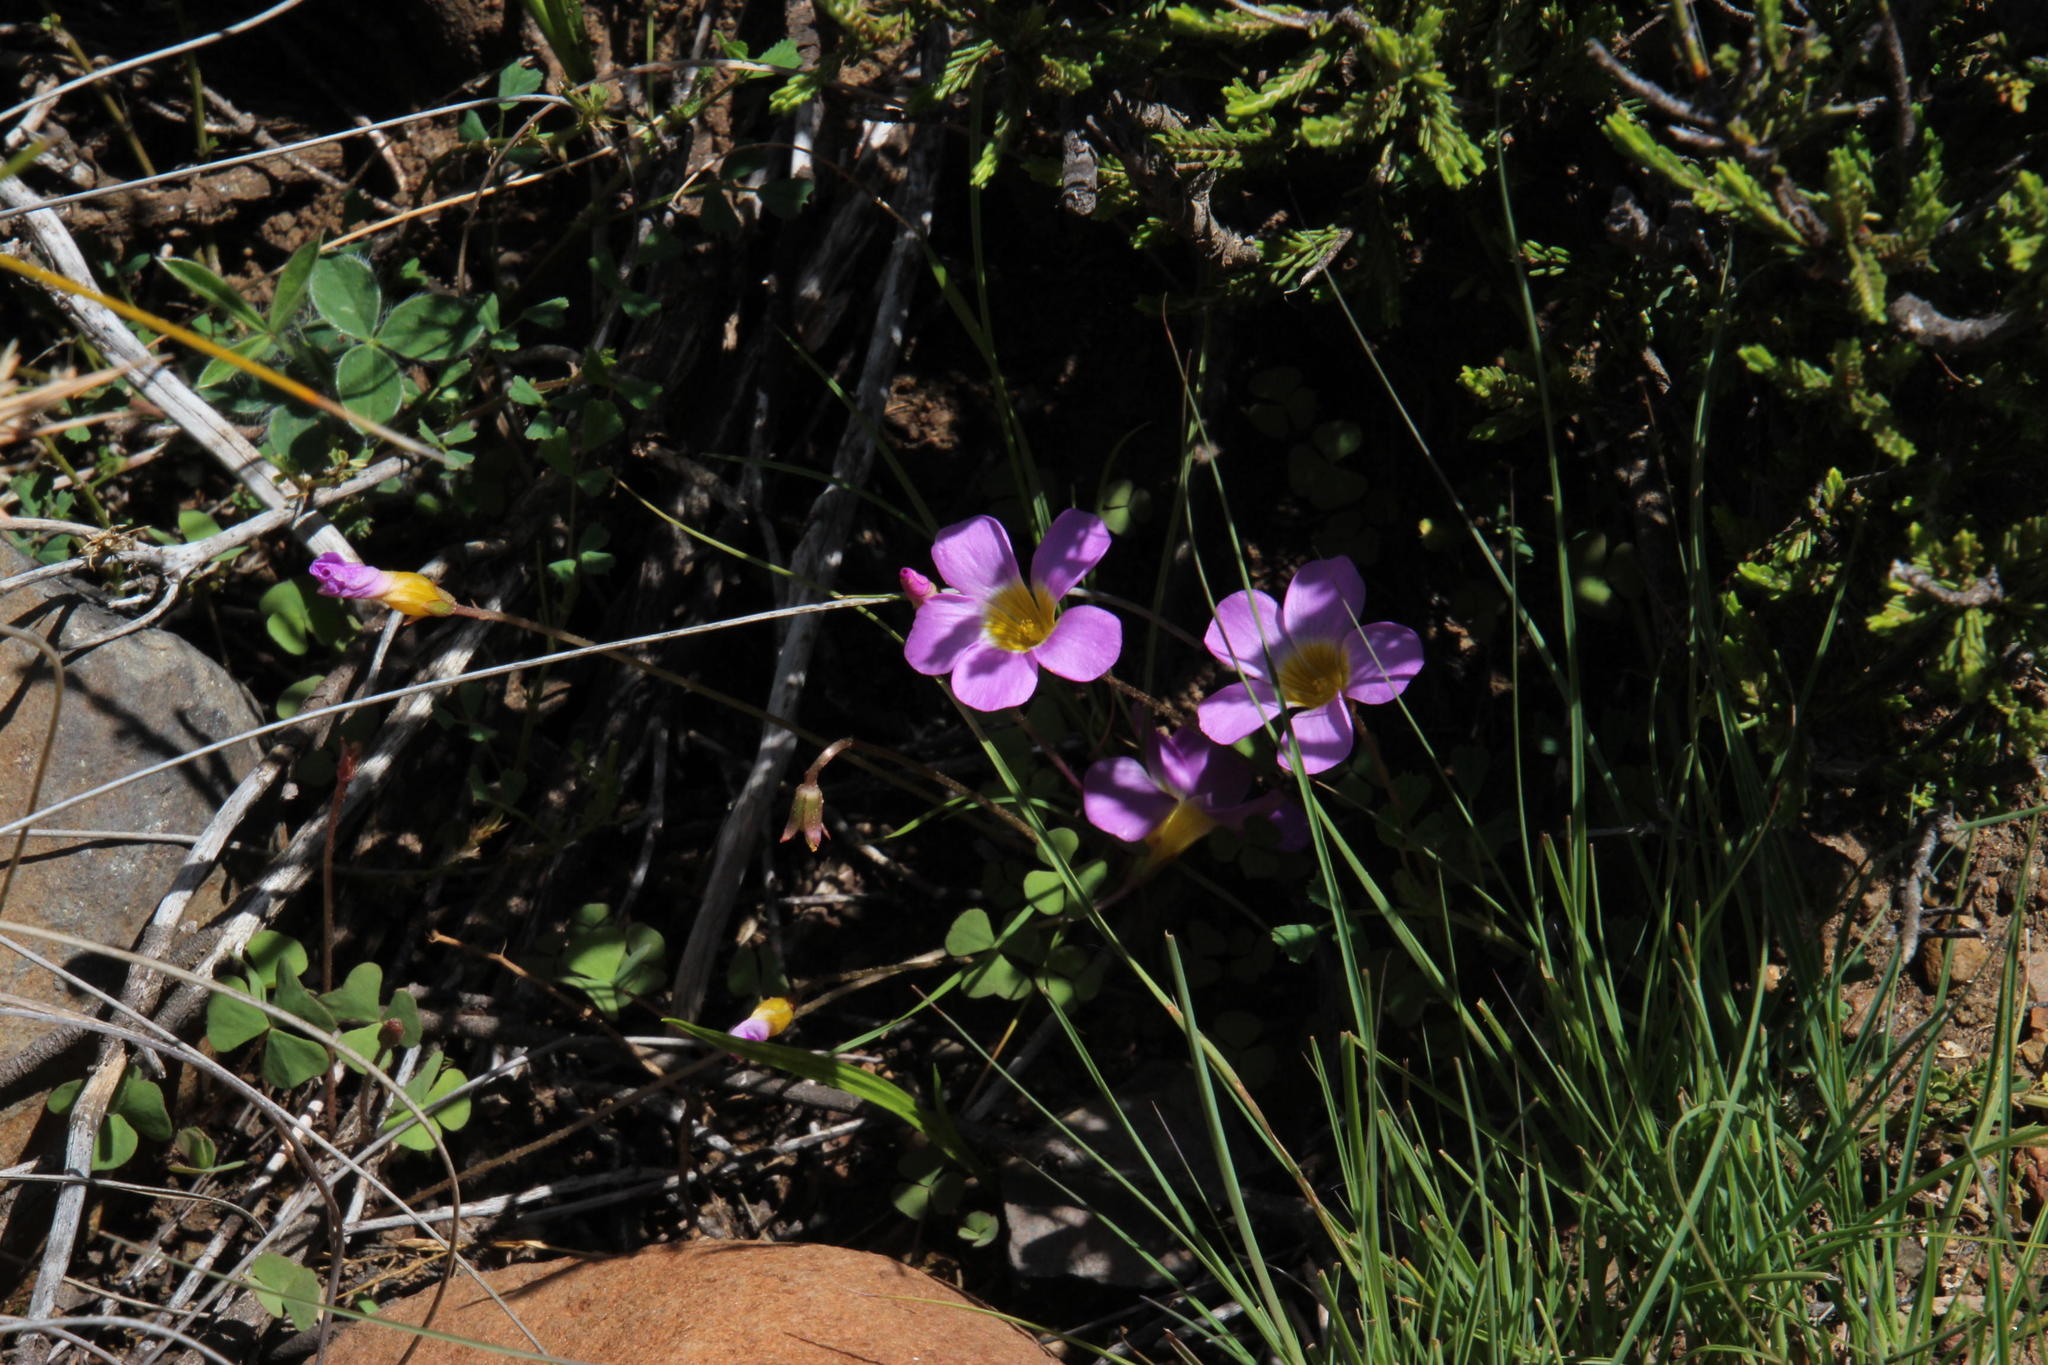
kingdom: Plantae
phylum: Tracheophyta
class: Magnoliopsida
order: Oxalidales
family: Oxalidaceae
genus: Oxalis
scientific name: Oxalis obliquifolia
